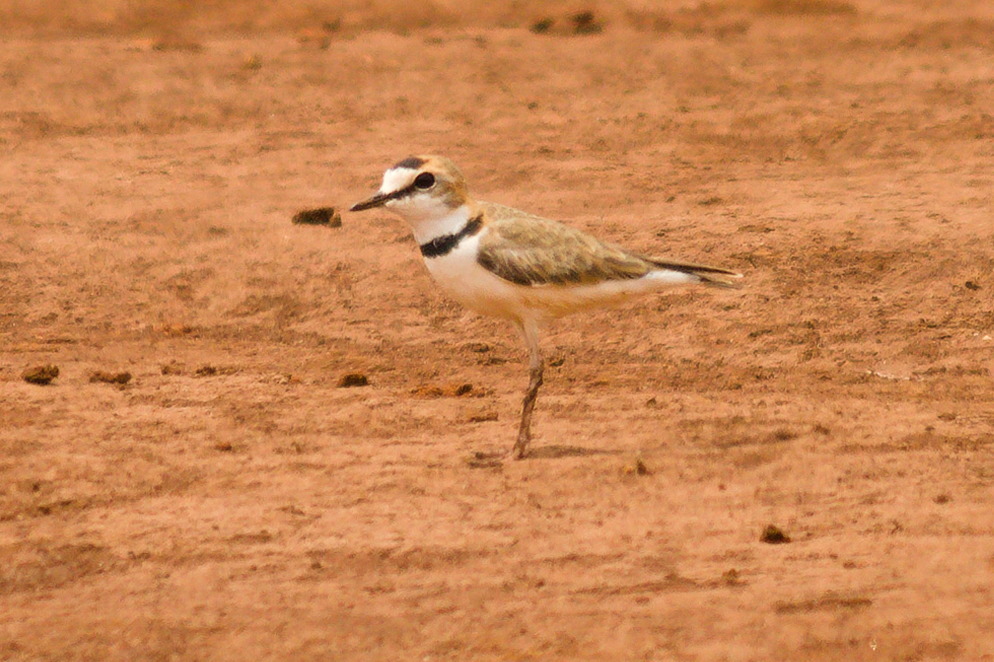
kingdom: Animalia
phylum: Chordata
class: Aves
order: Charadriiformes
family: Charadriidae
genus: Anarhynchus
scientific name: Anarhynchus
